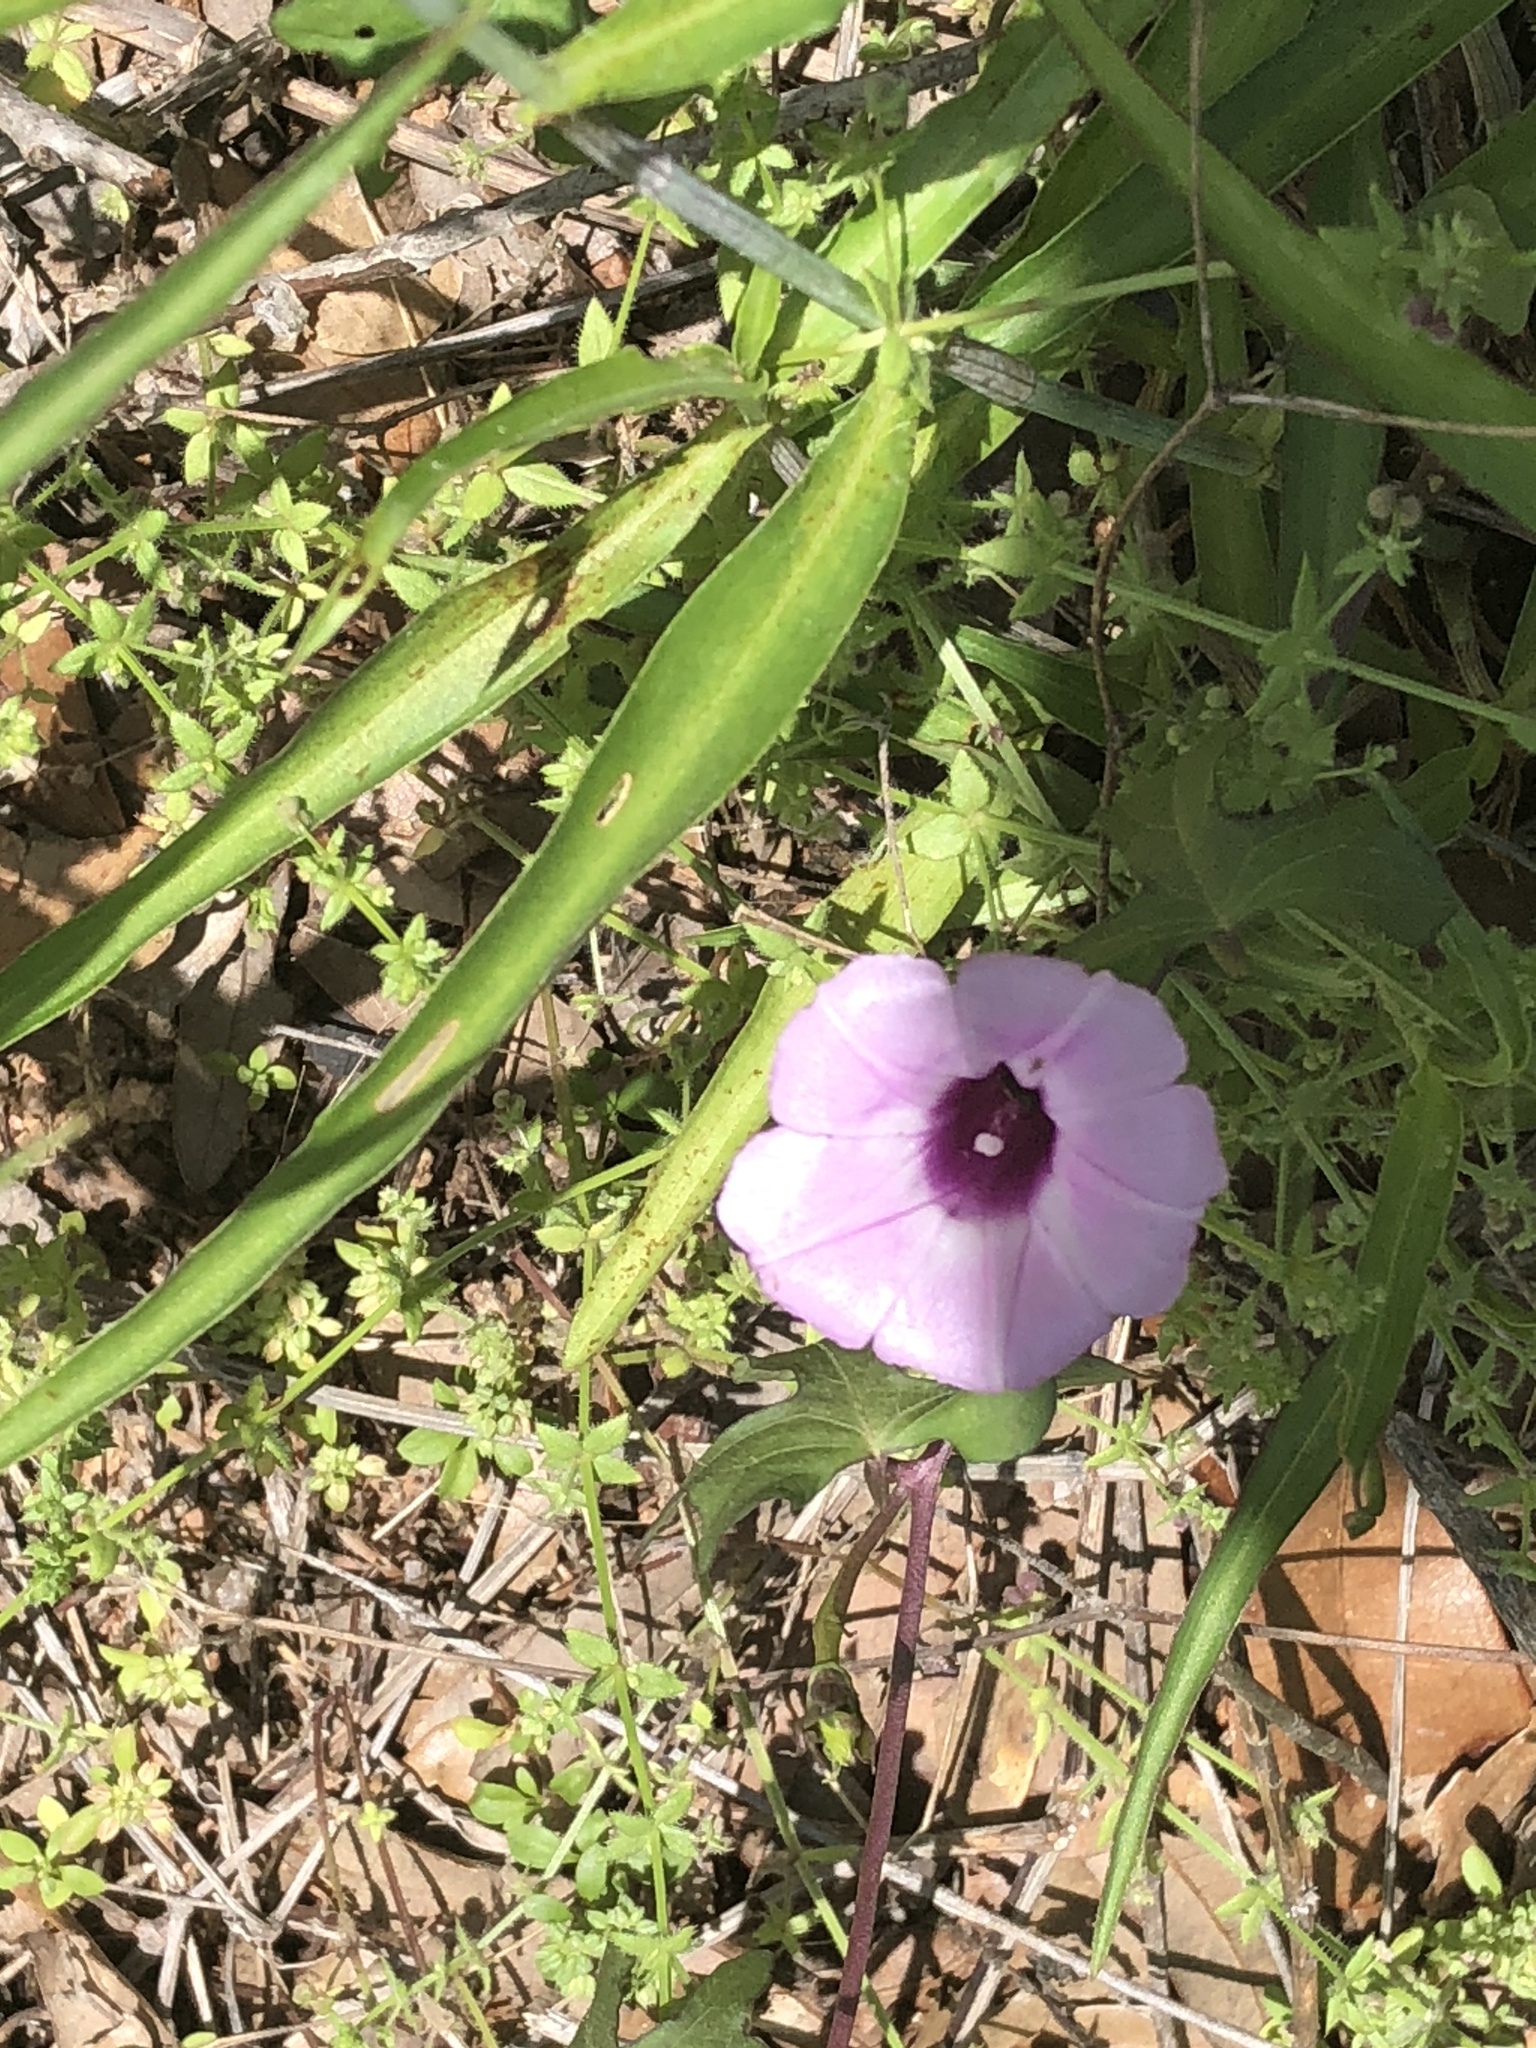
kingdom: Plantae
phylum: Tracheophyta
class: Magnoliopsida
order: Solanales
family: Convolvulaceae
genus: Ipomoea
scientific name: Ipomoea cordatotriloba
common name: Cotton morning glory
